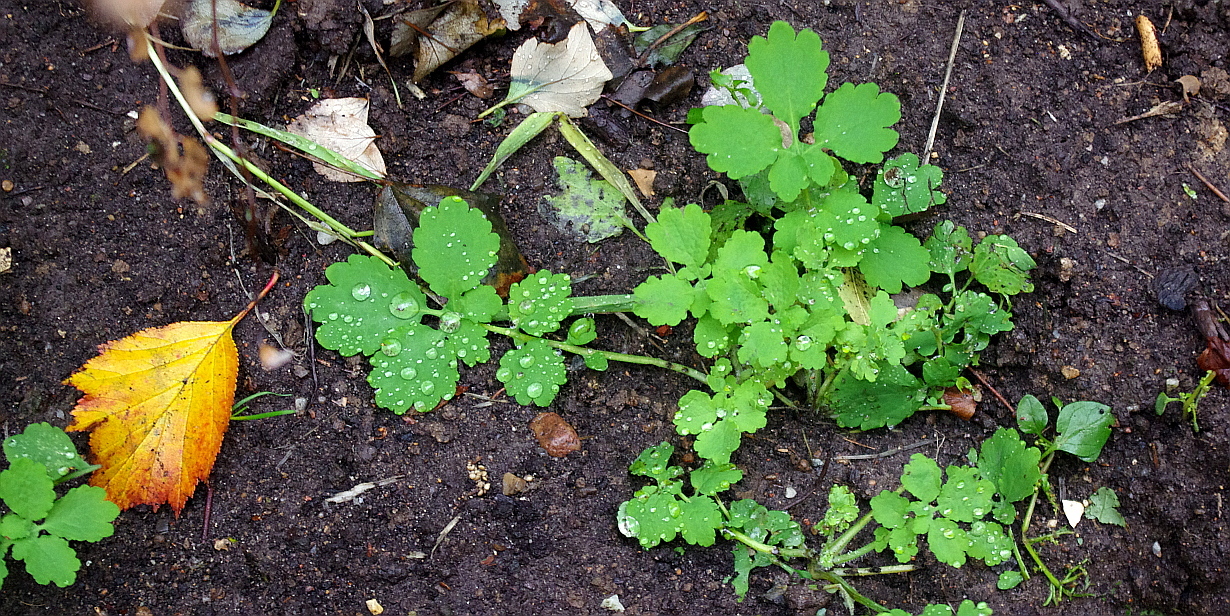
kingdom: Plantae
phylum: Tracheophyta
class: Magnoliopsida
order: Ranunculales
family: Papaveraceae
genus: Chelidonium
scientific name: Chelidonium majus
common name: Greater celandine
